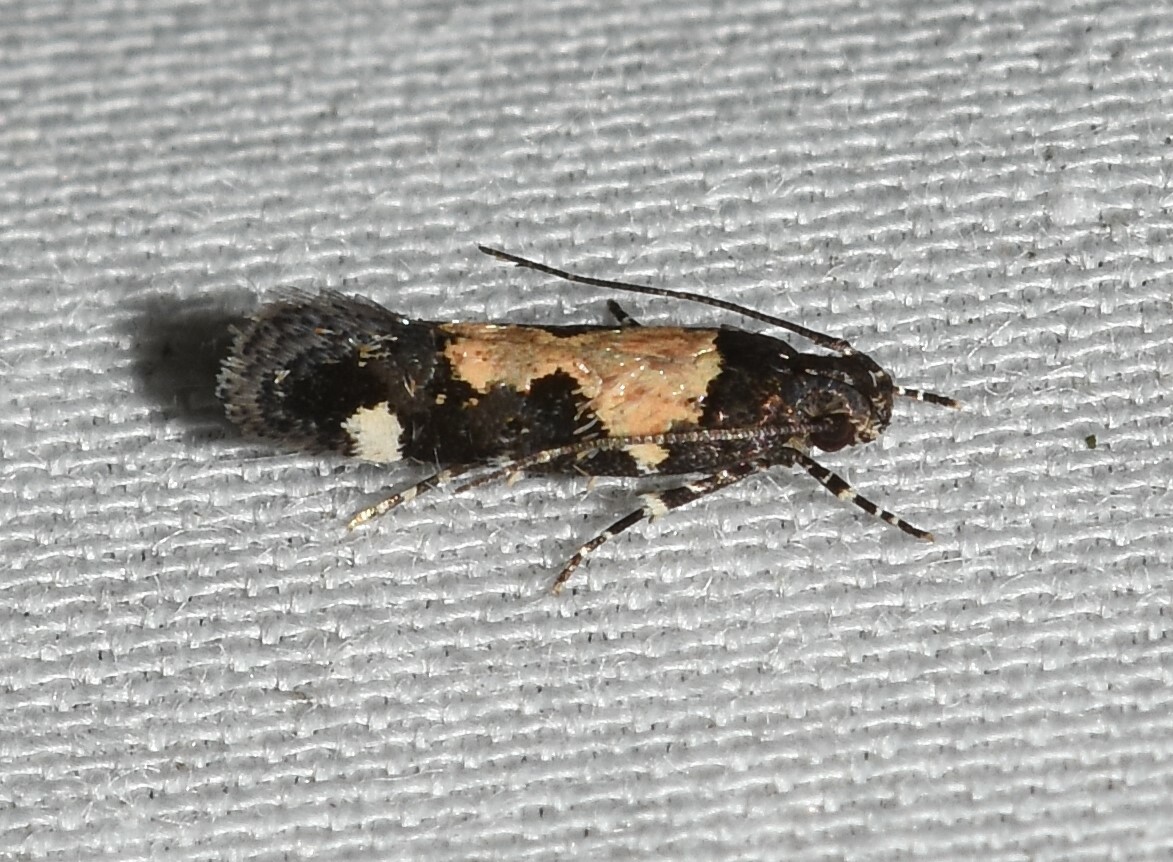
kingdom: Animalia
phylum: Arthropoda
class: Insecta
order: Lepidoptera
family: Gelechiidae
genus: Stegasta
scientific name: Stegasta bosqueella
